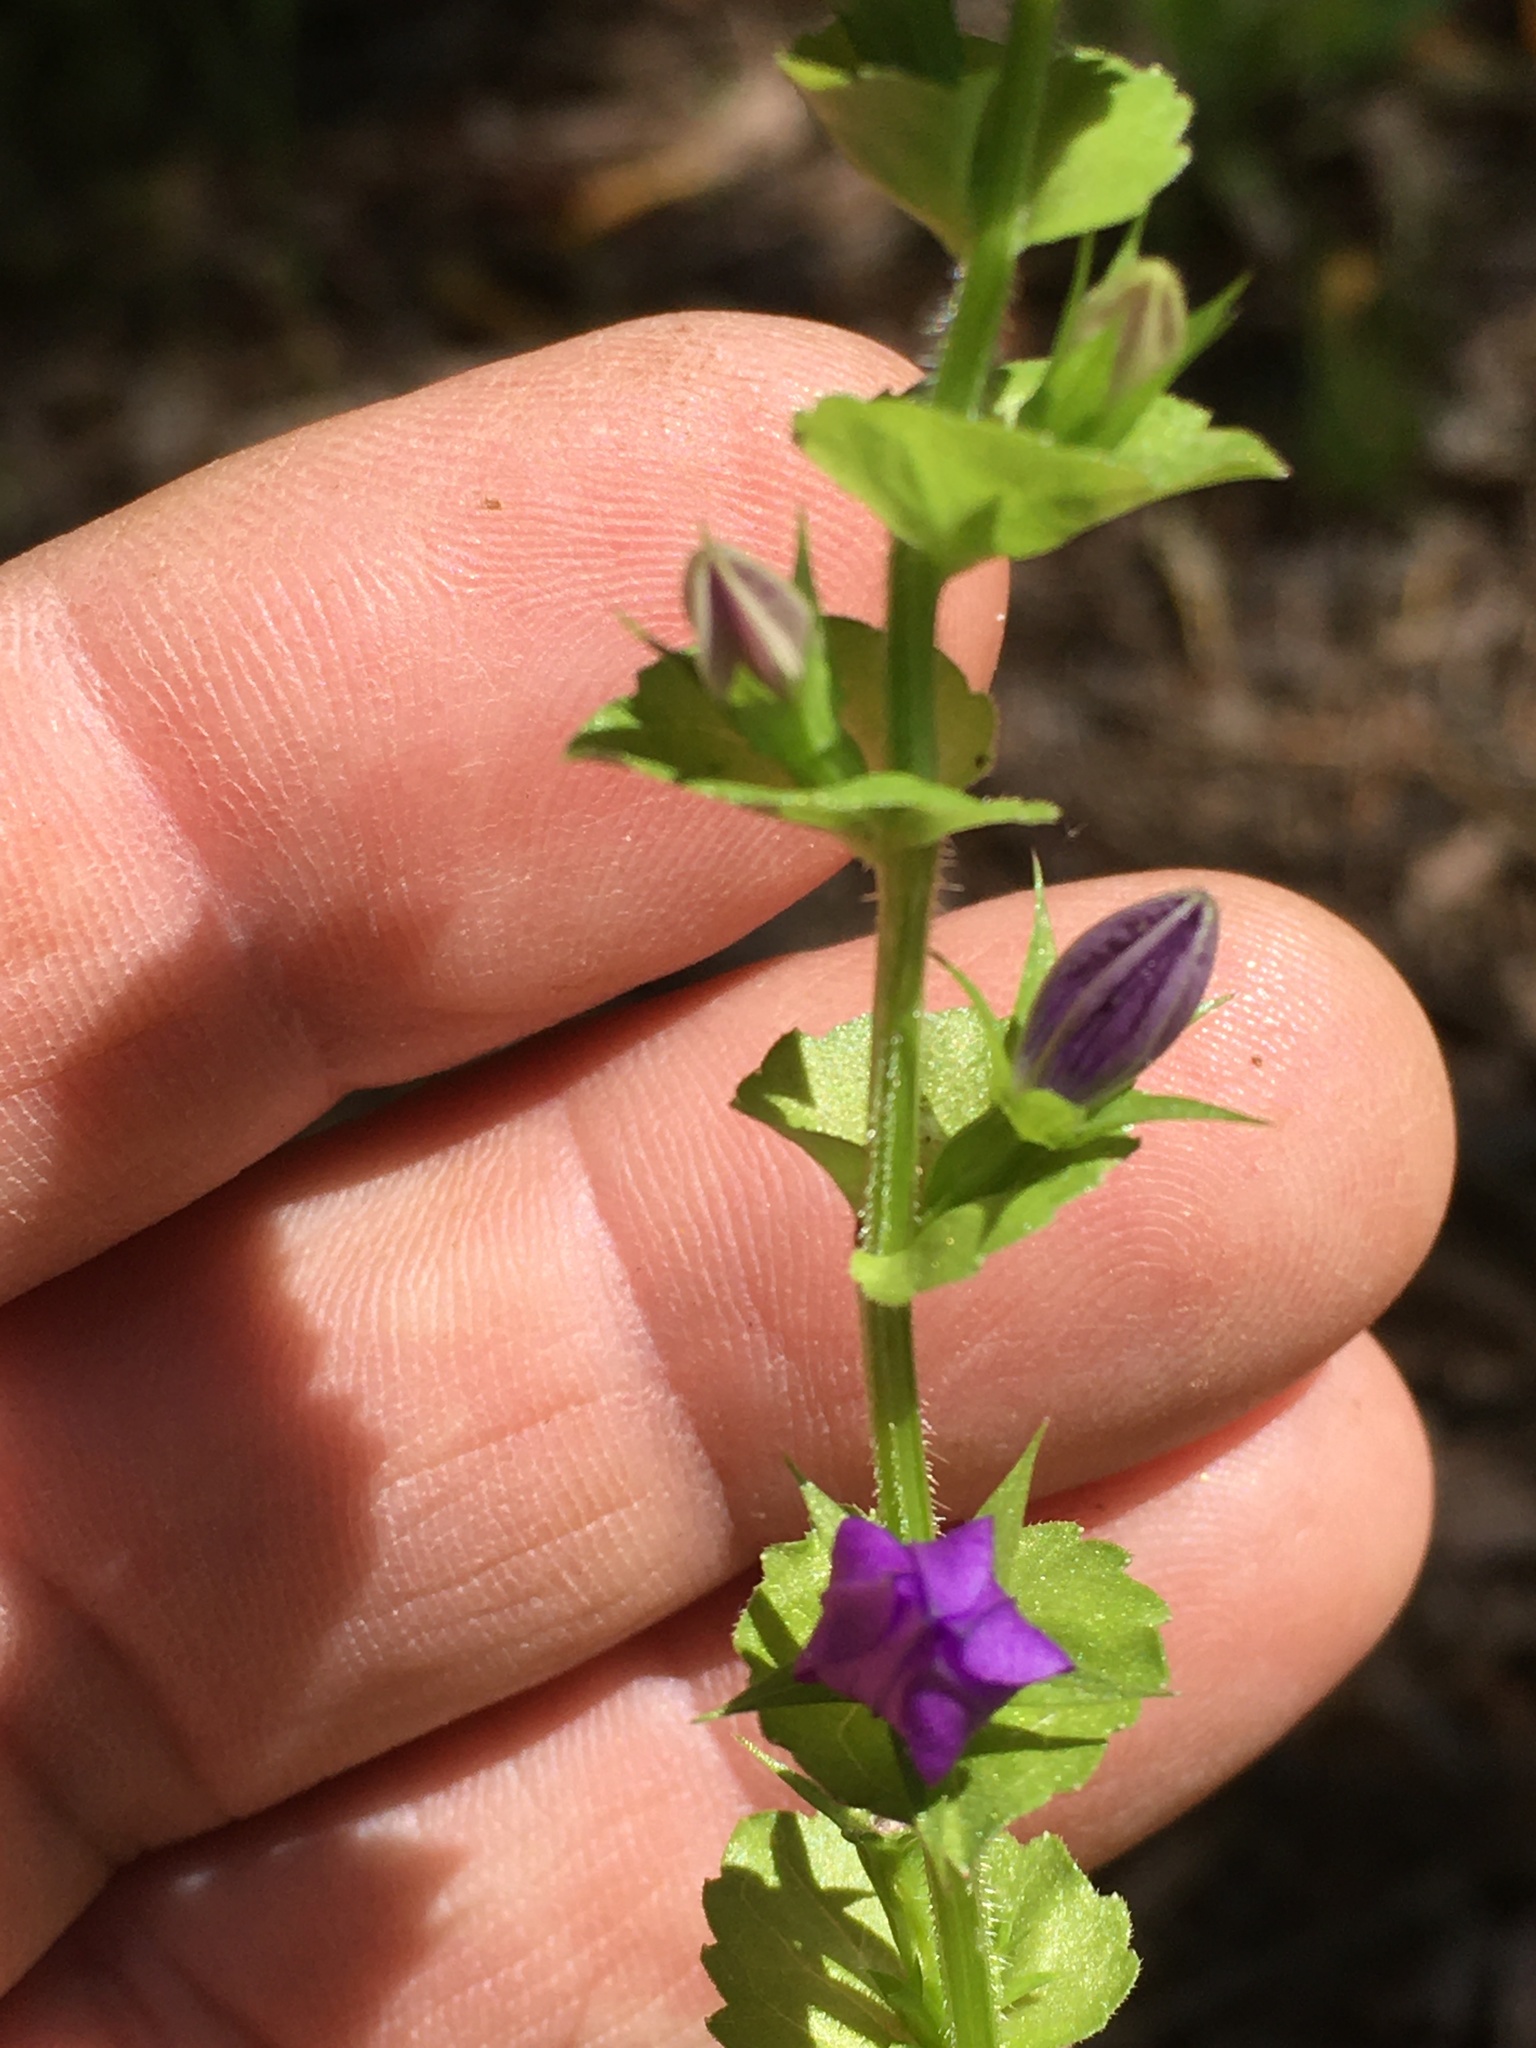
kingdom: Plantae
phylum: Tracheophyta
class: Magnoliopsida
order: Asterales
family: Campanulaceae
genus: Triodanis
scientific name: Triodanis perfoliata
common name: Clasping venus' looking-glass
